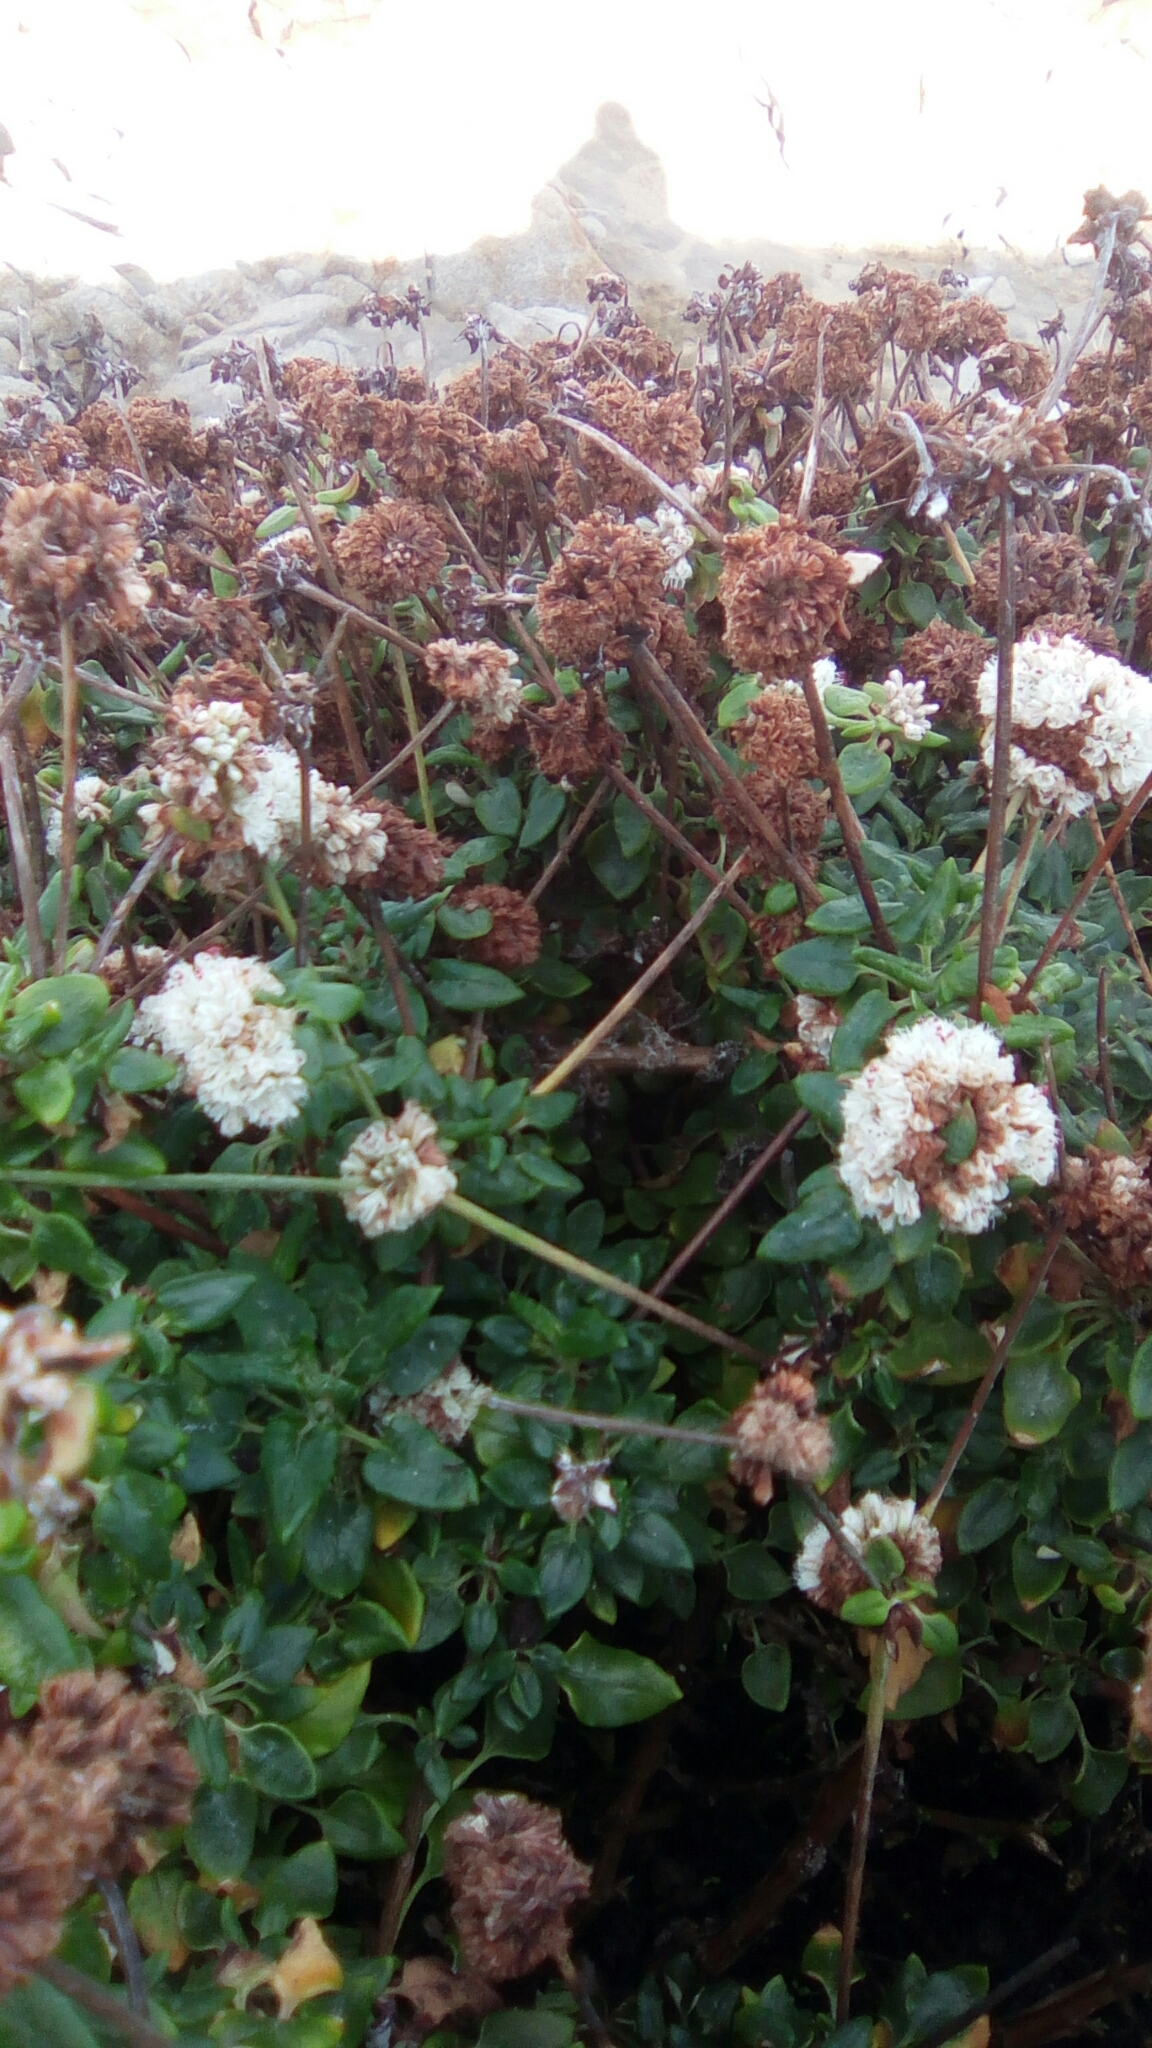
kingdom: Plantae
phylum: Tracheophyta
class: Magnoliopsida
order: Caryophyllales
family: Polygonaceae
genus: Eriogonum
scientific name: Eriogonum parvifolium
